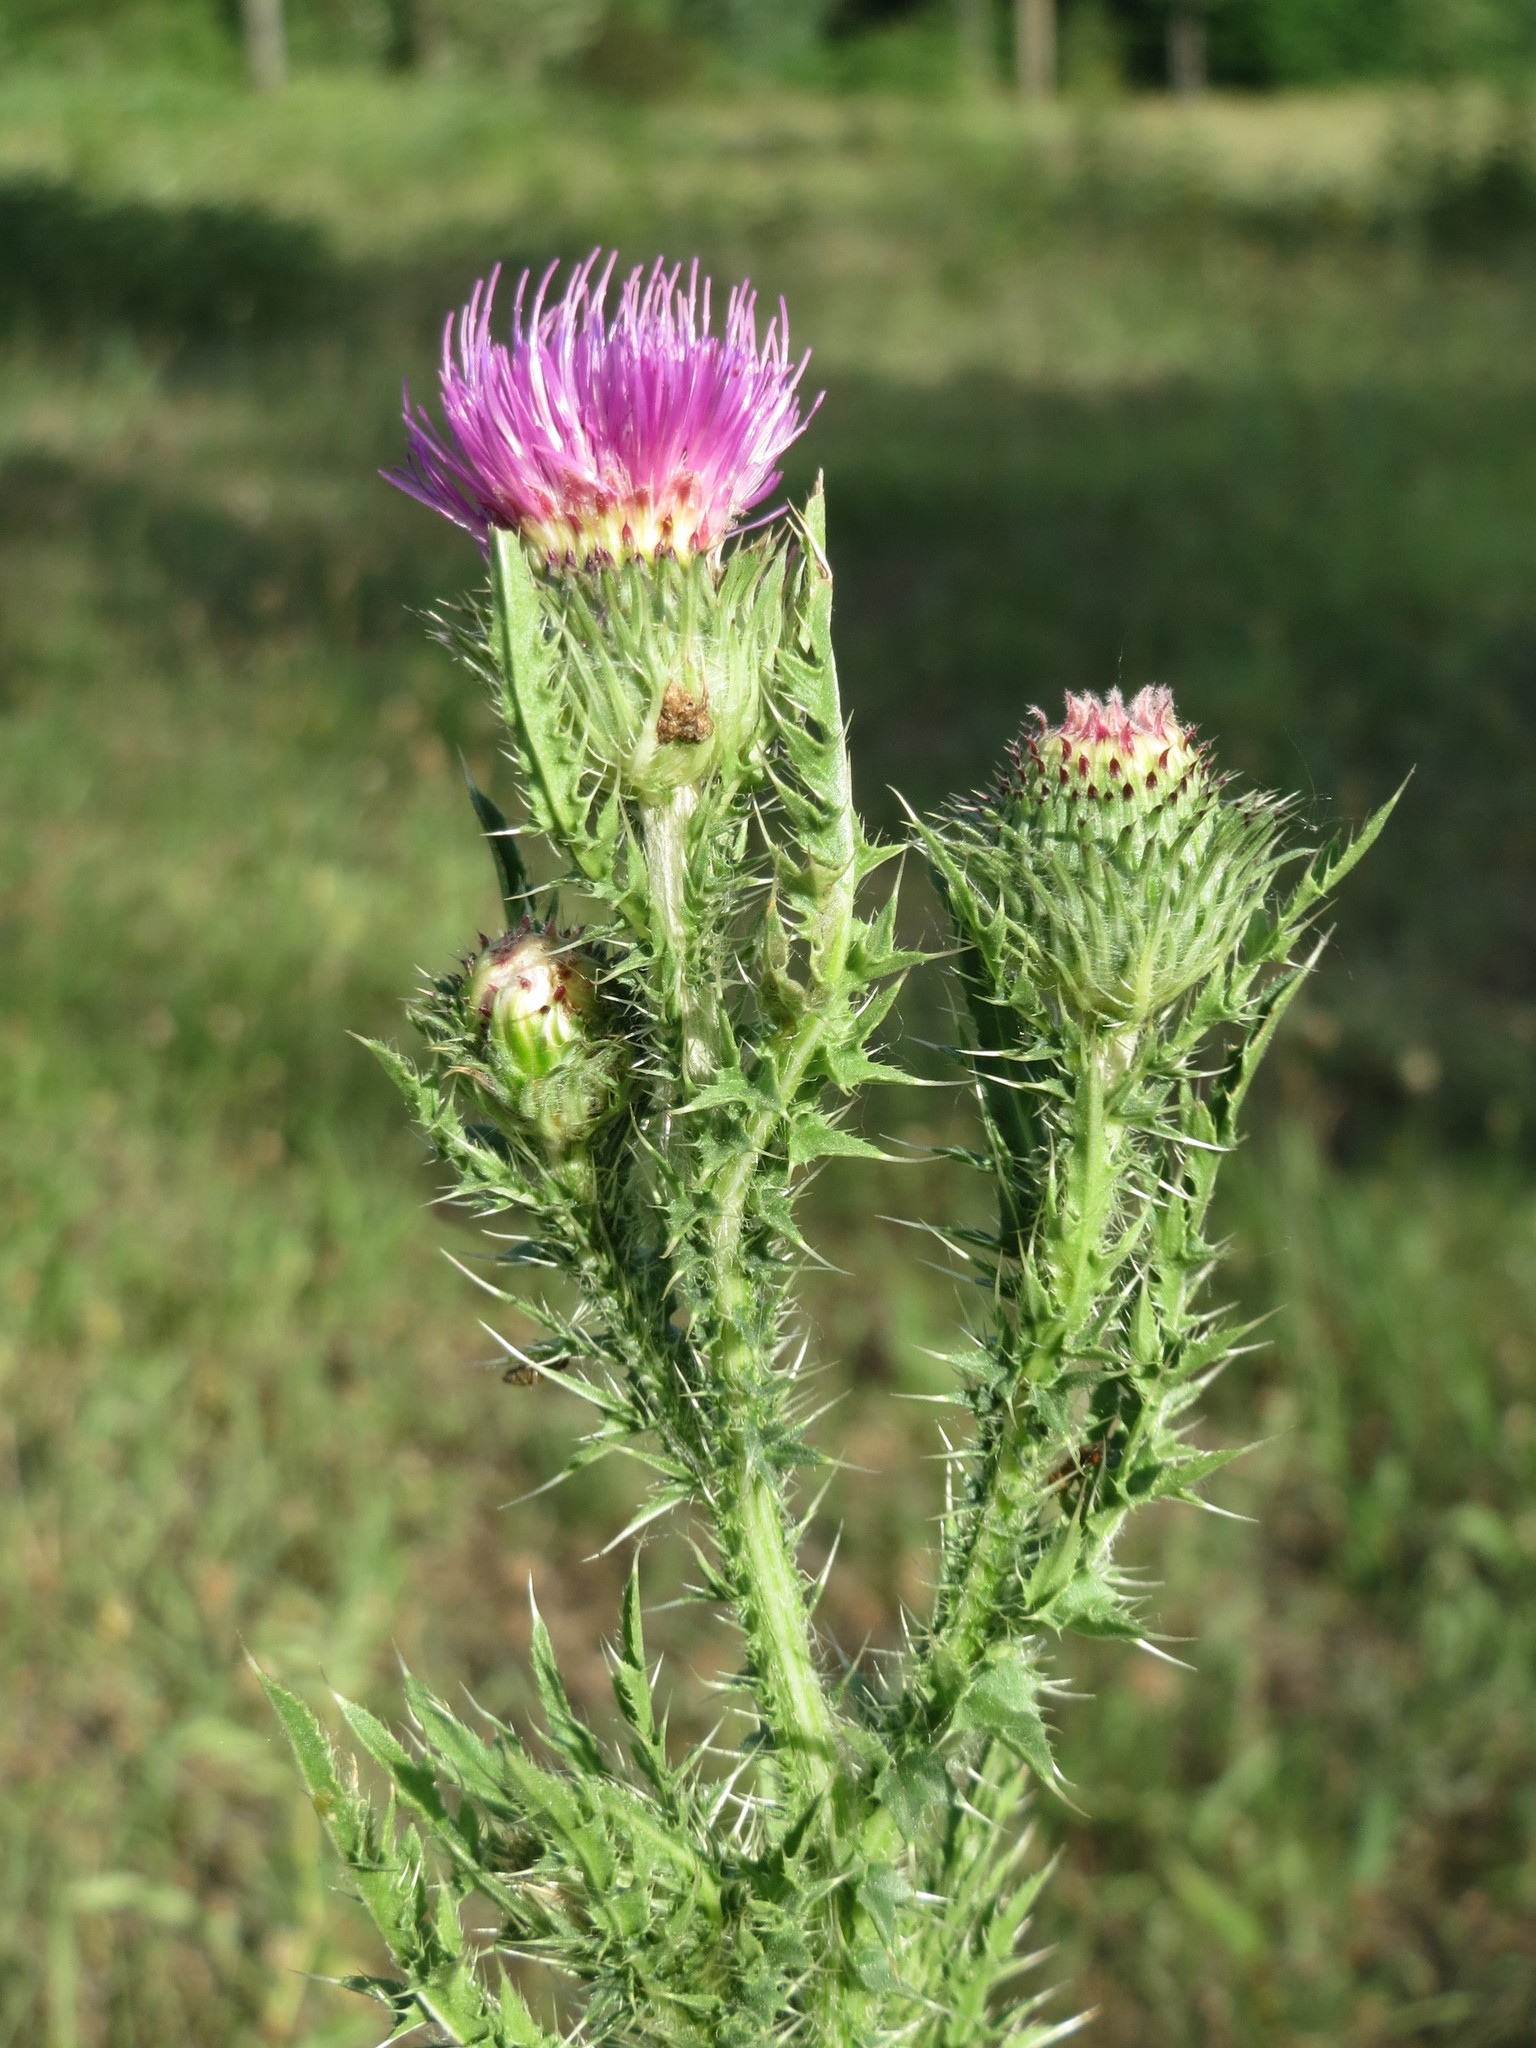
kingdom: Plantae
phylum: Tracheophyta
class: Magnoliopsida
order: Asterales
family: Asteraceae
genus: Carduus
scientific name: Carduus acanthoides
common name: Plumeless thistle
